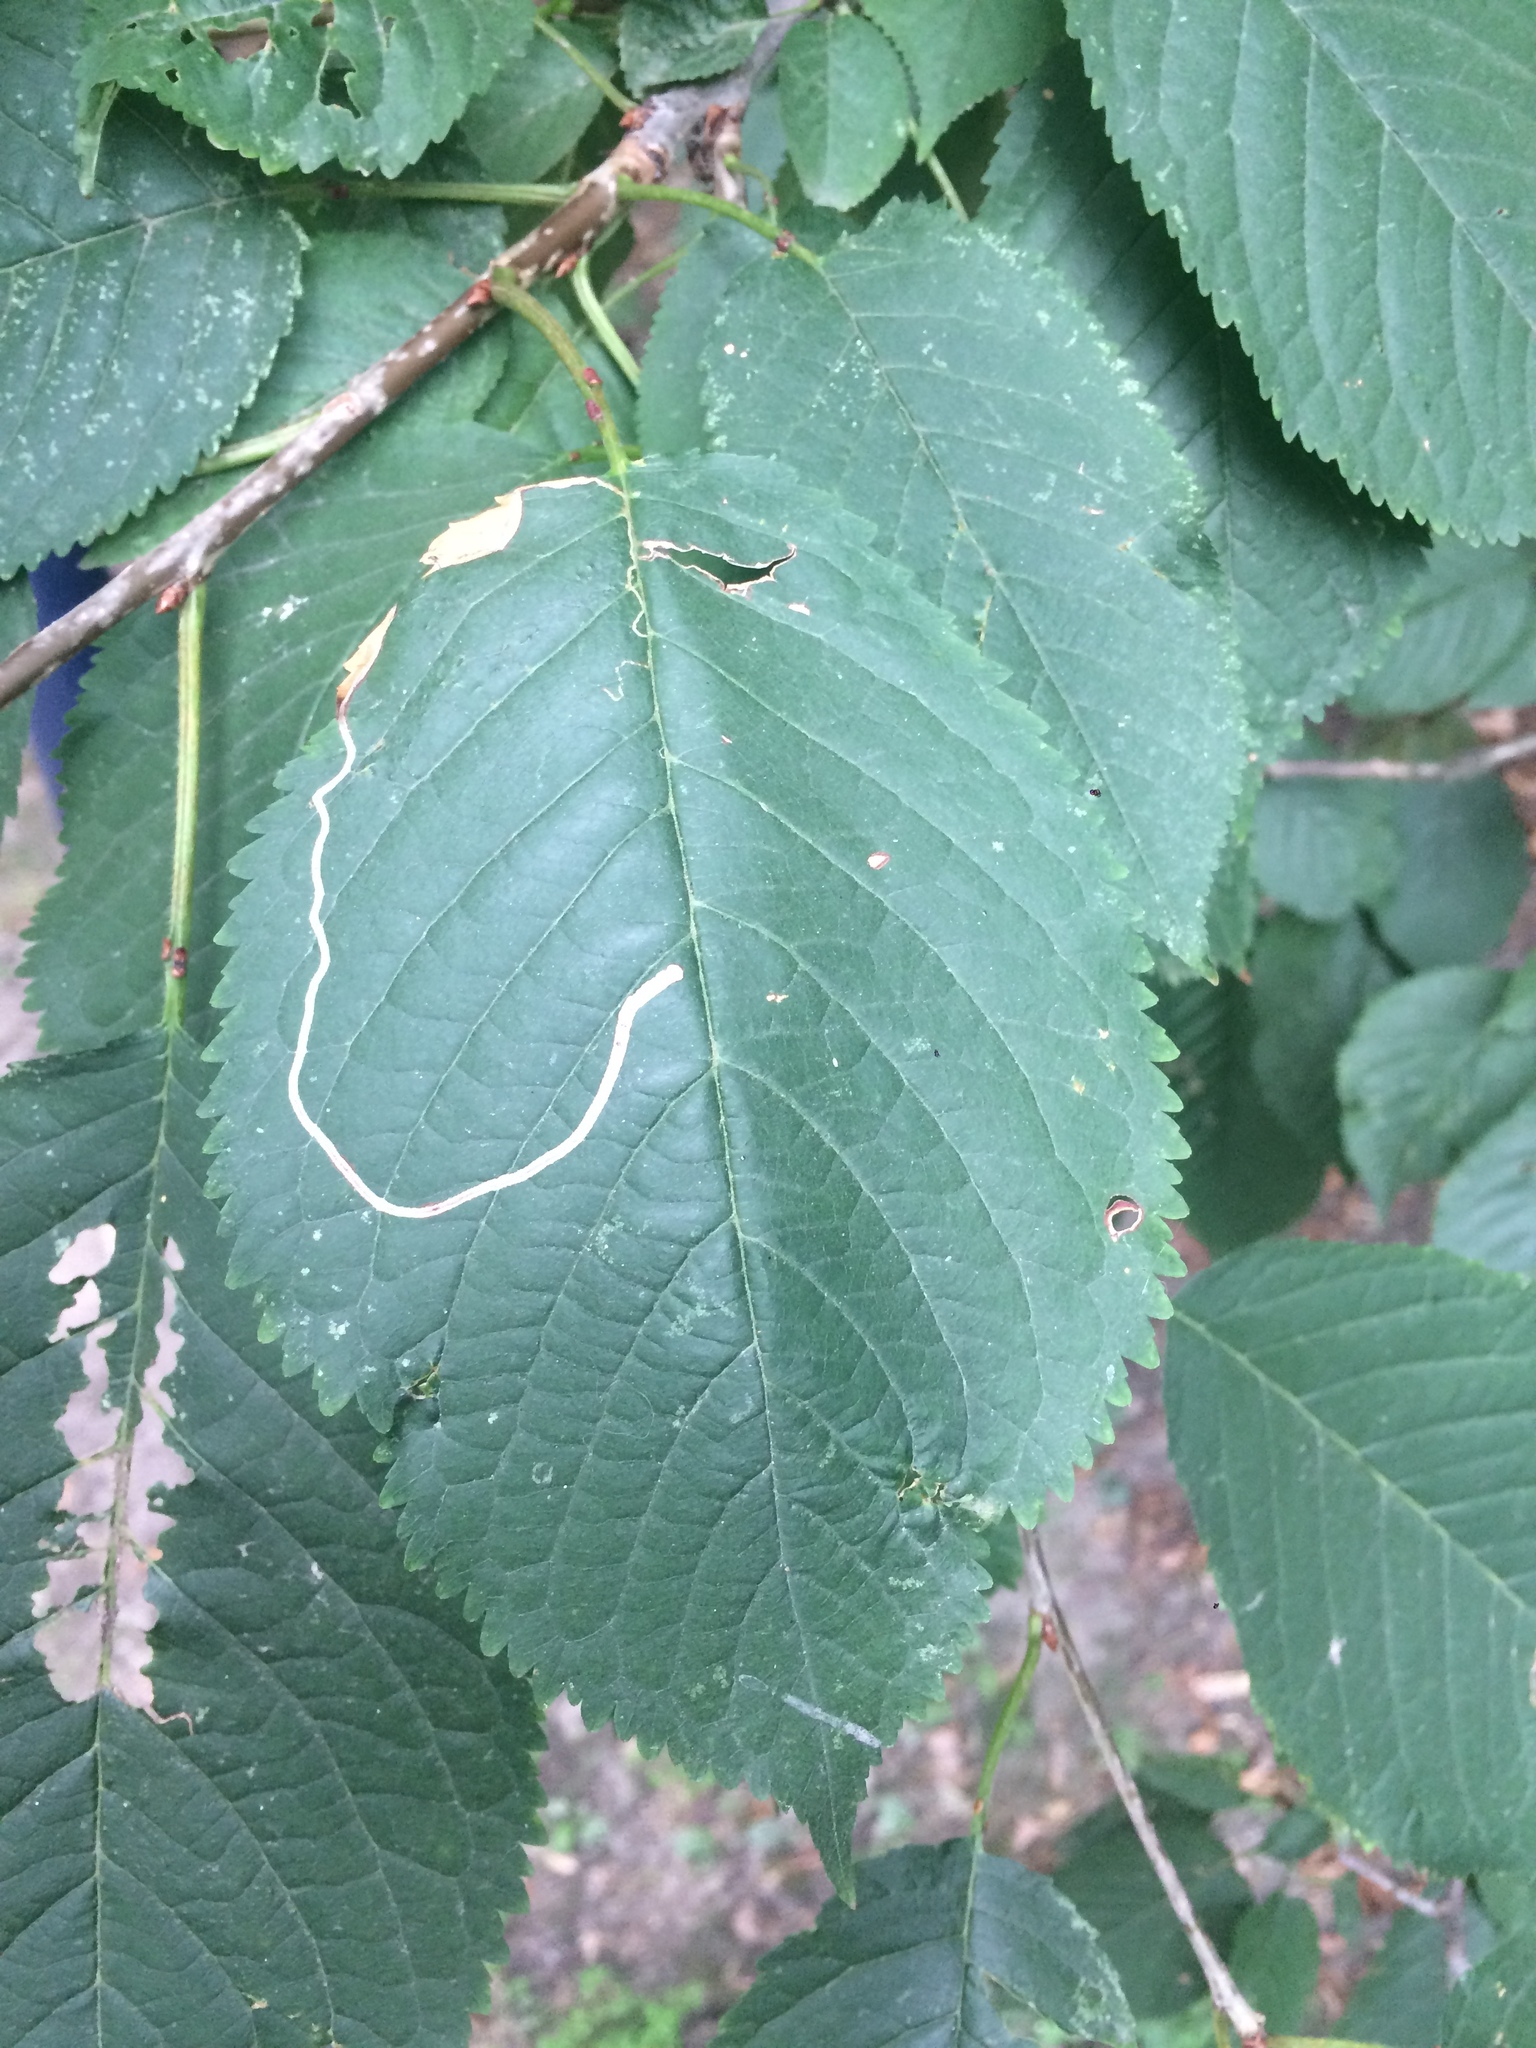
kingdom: Animalia
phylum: Arthropoda
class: Insecta
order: Lepidoptera
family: Lyonetiidae
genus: Lyonetia
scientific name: Lyonetia clerkella
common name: Apple leaf miner
